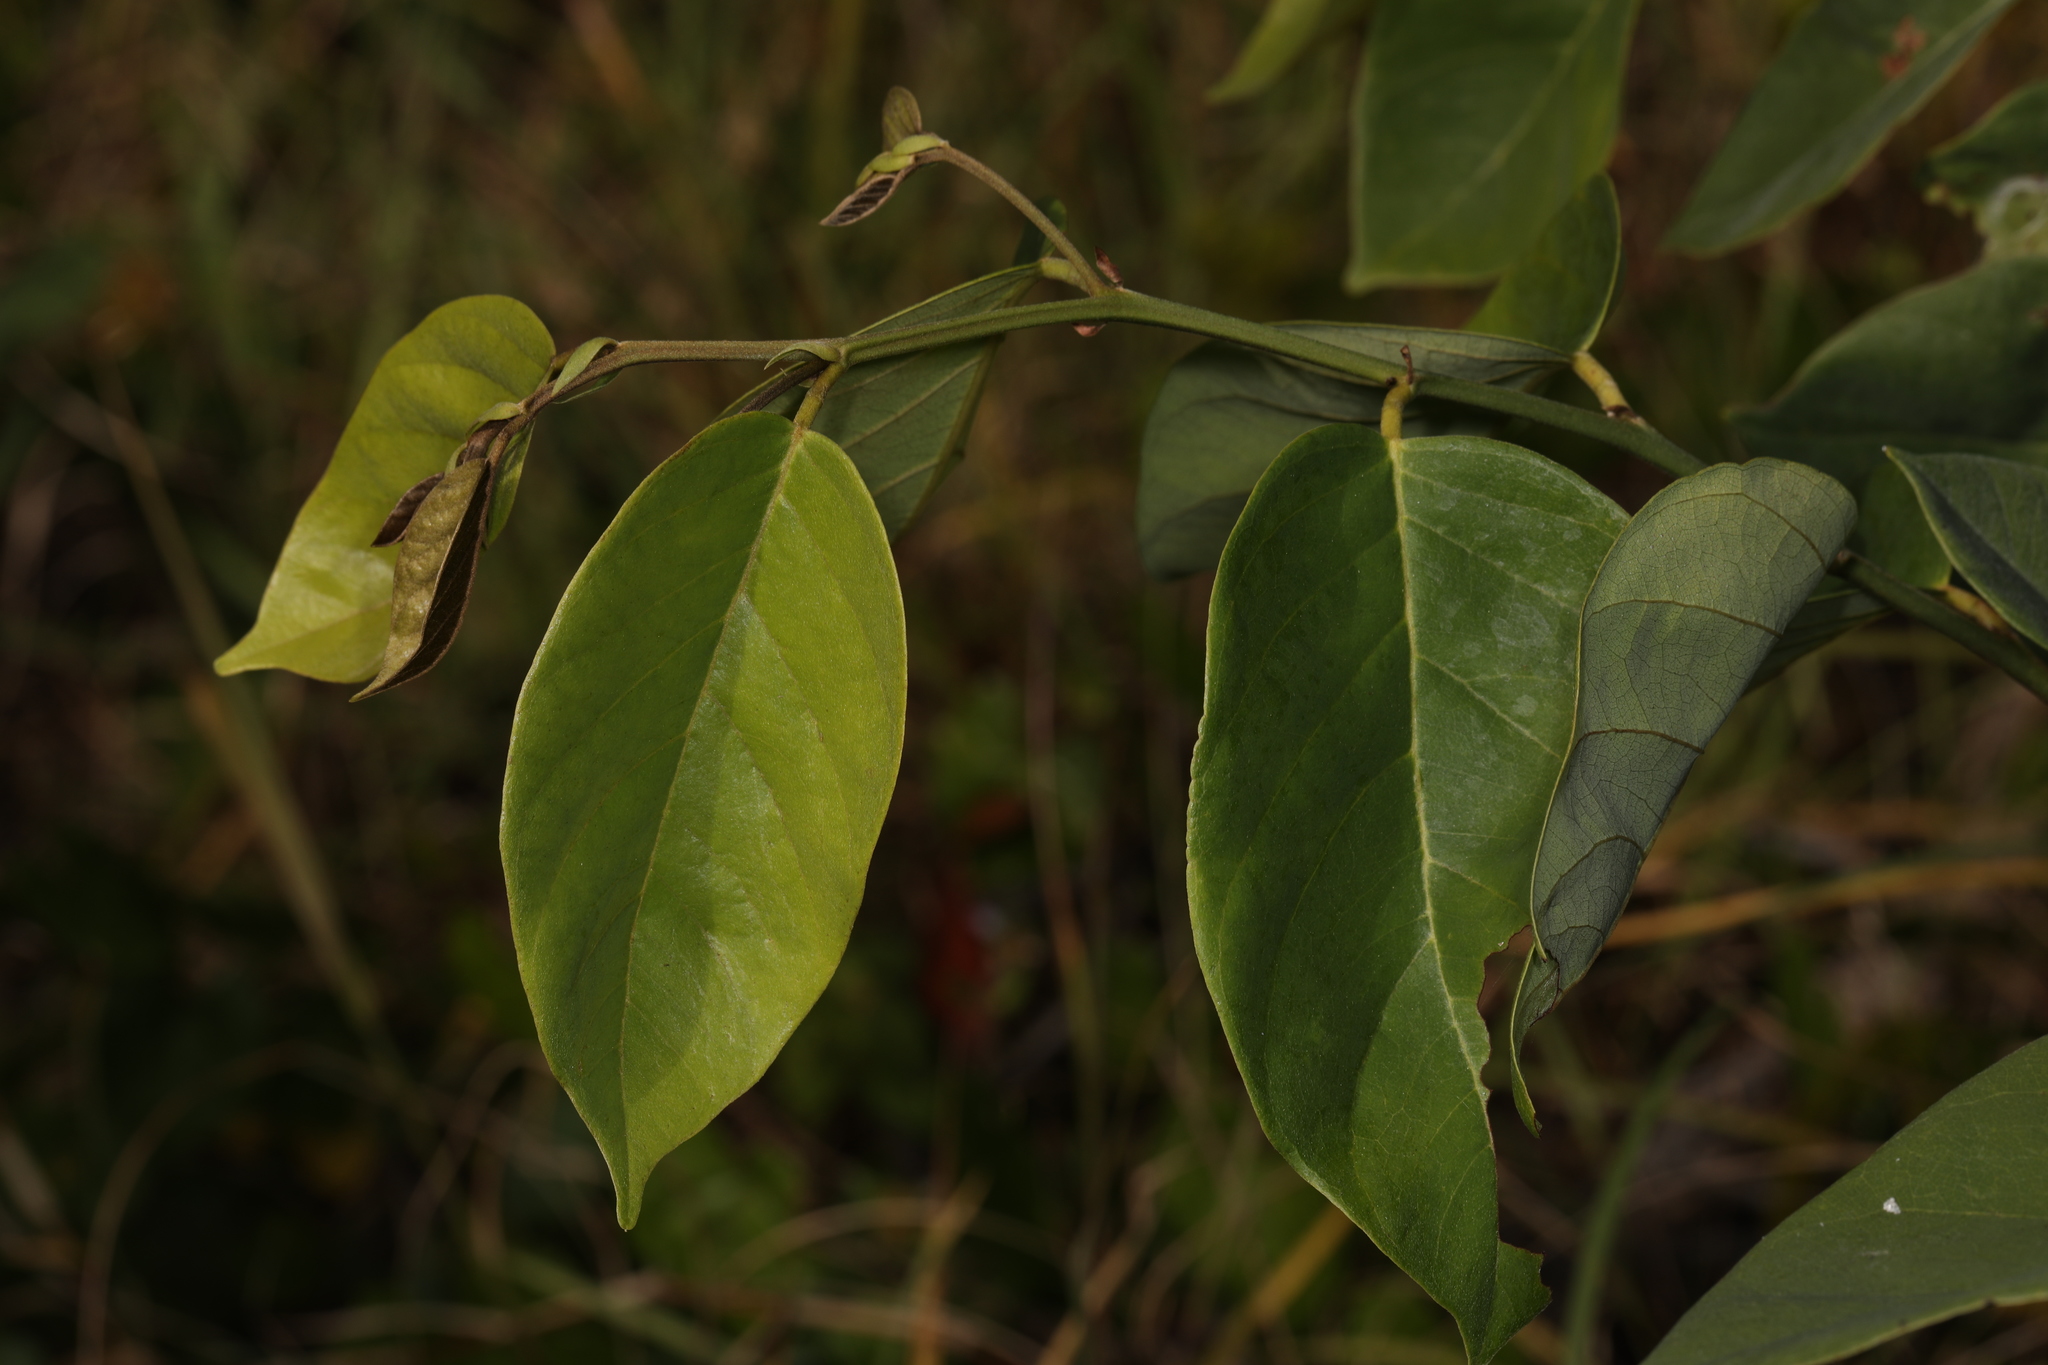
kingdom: Plantae
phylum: Tracheophyta
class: Magnoliopsida
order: Fabales
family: Fabaceae
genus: Dalbergia
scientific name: Dalbergia ecastaphyllum
